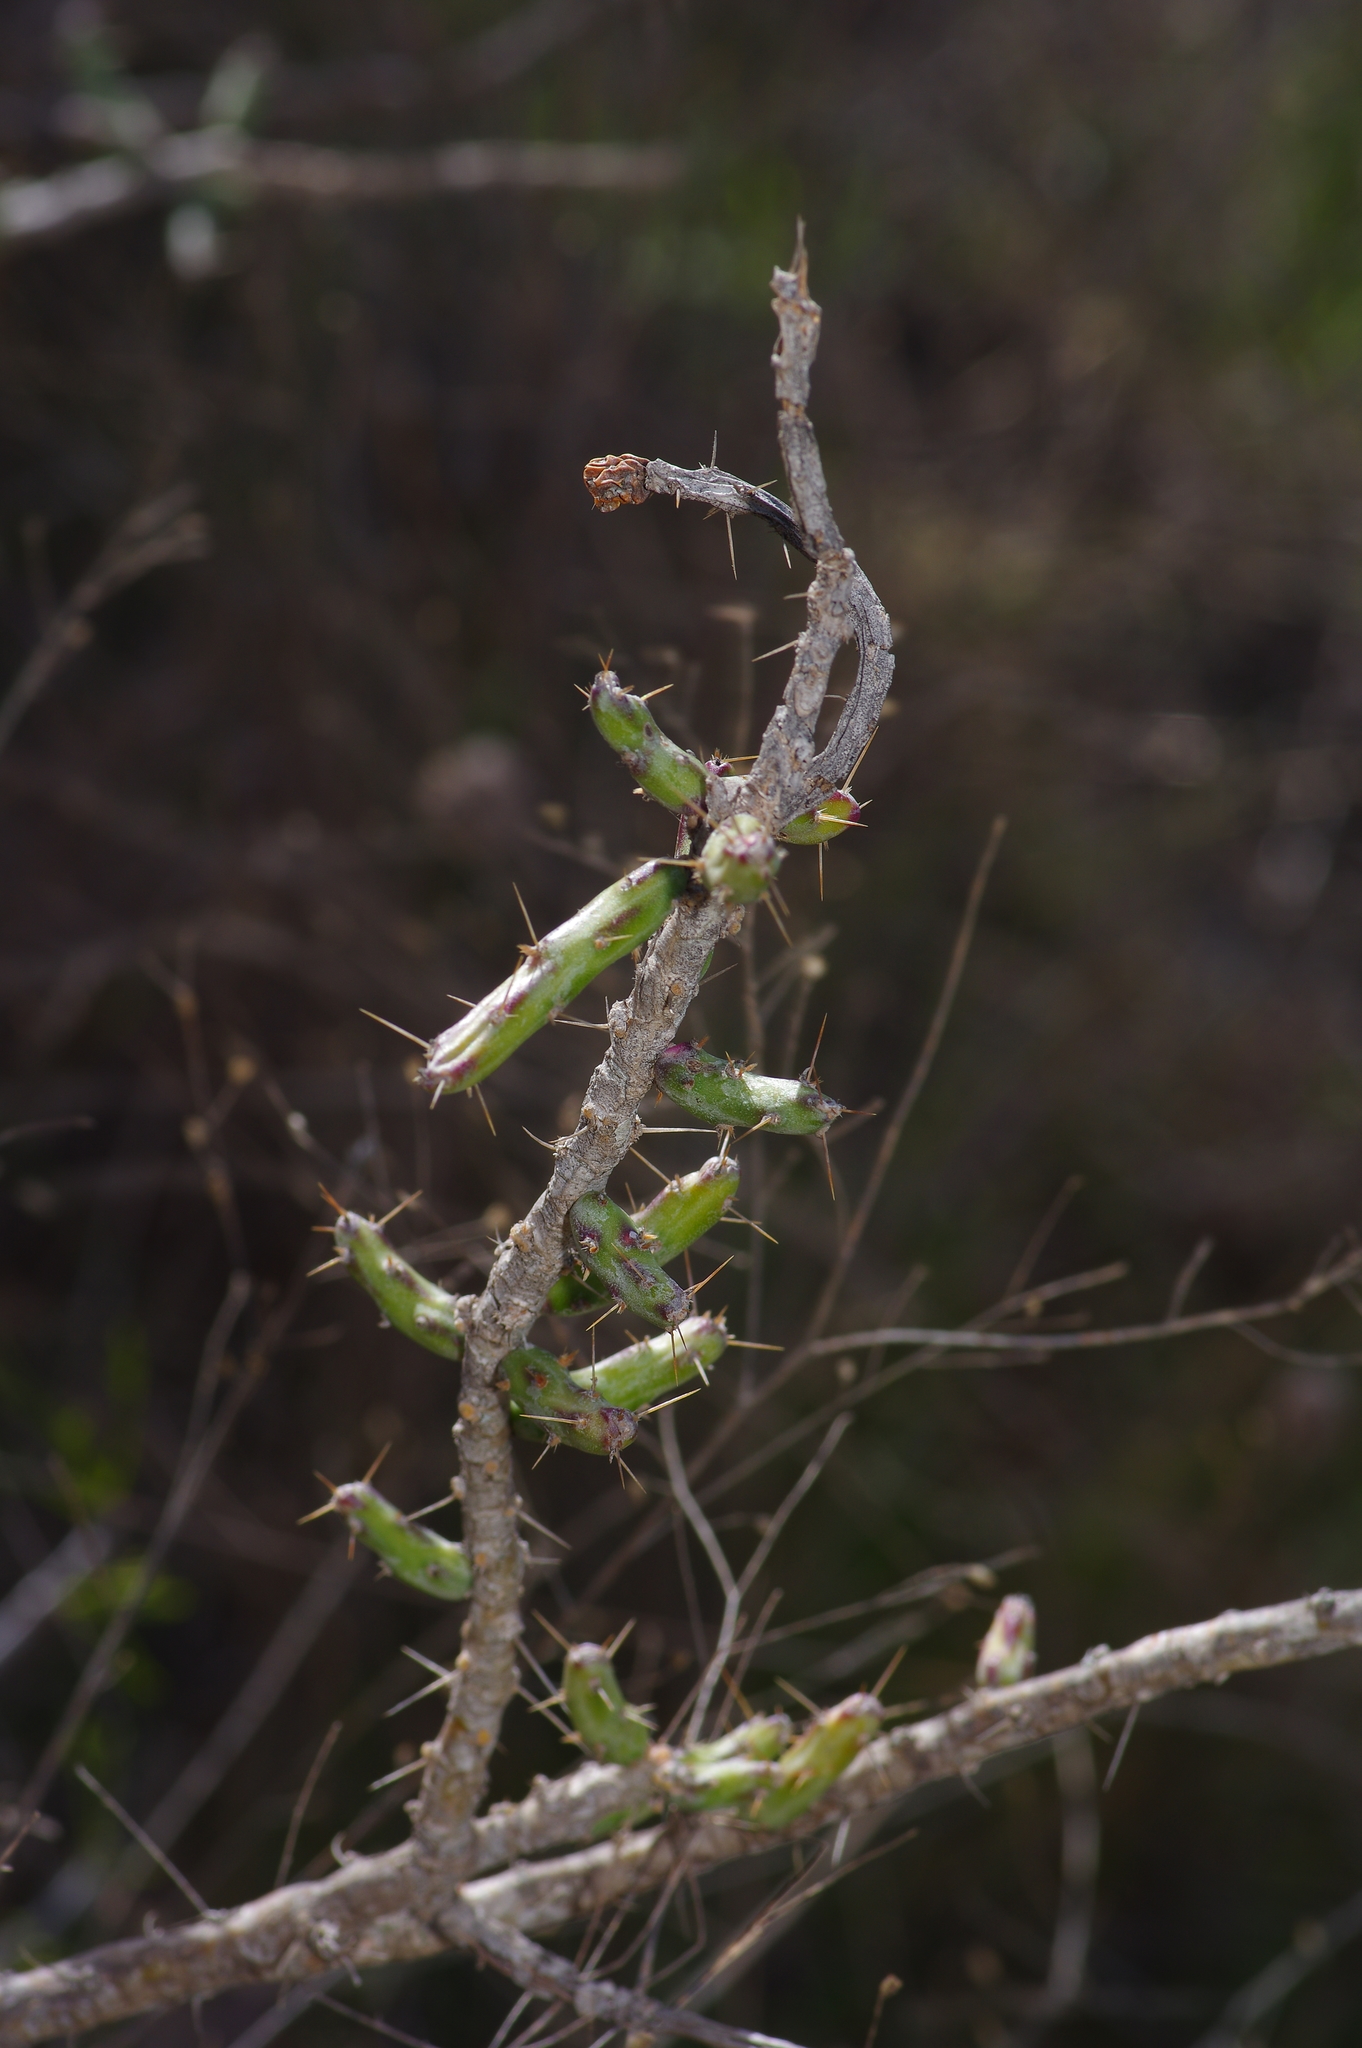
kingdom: Plantae
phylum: Tracheophyta
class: Magnoliopsida
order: Caryophyllales
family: Cactaceae
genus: Cylindropuntia
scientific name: Cylindropuntia leptocaulis
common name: Christmas cactus
